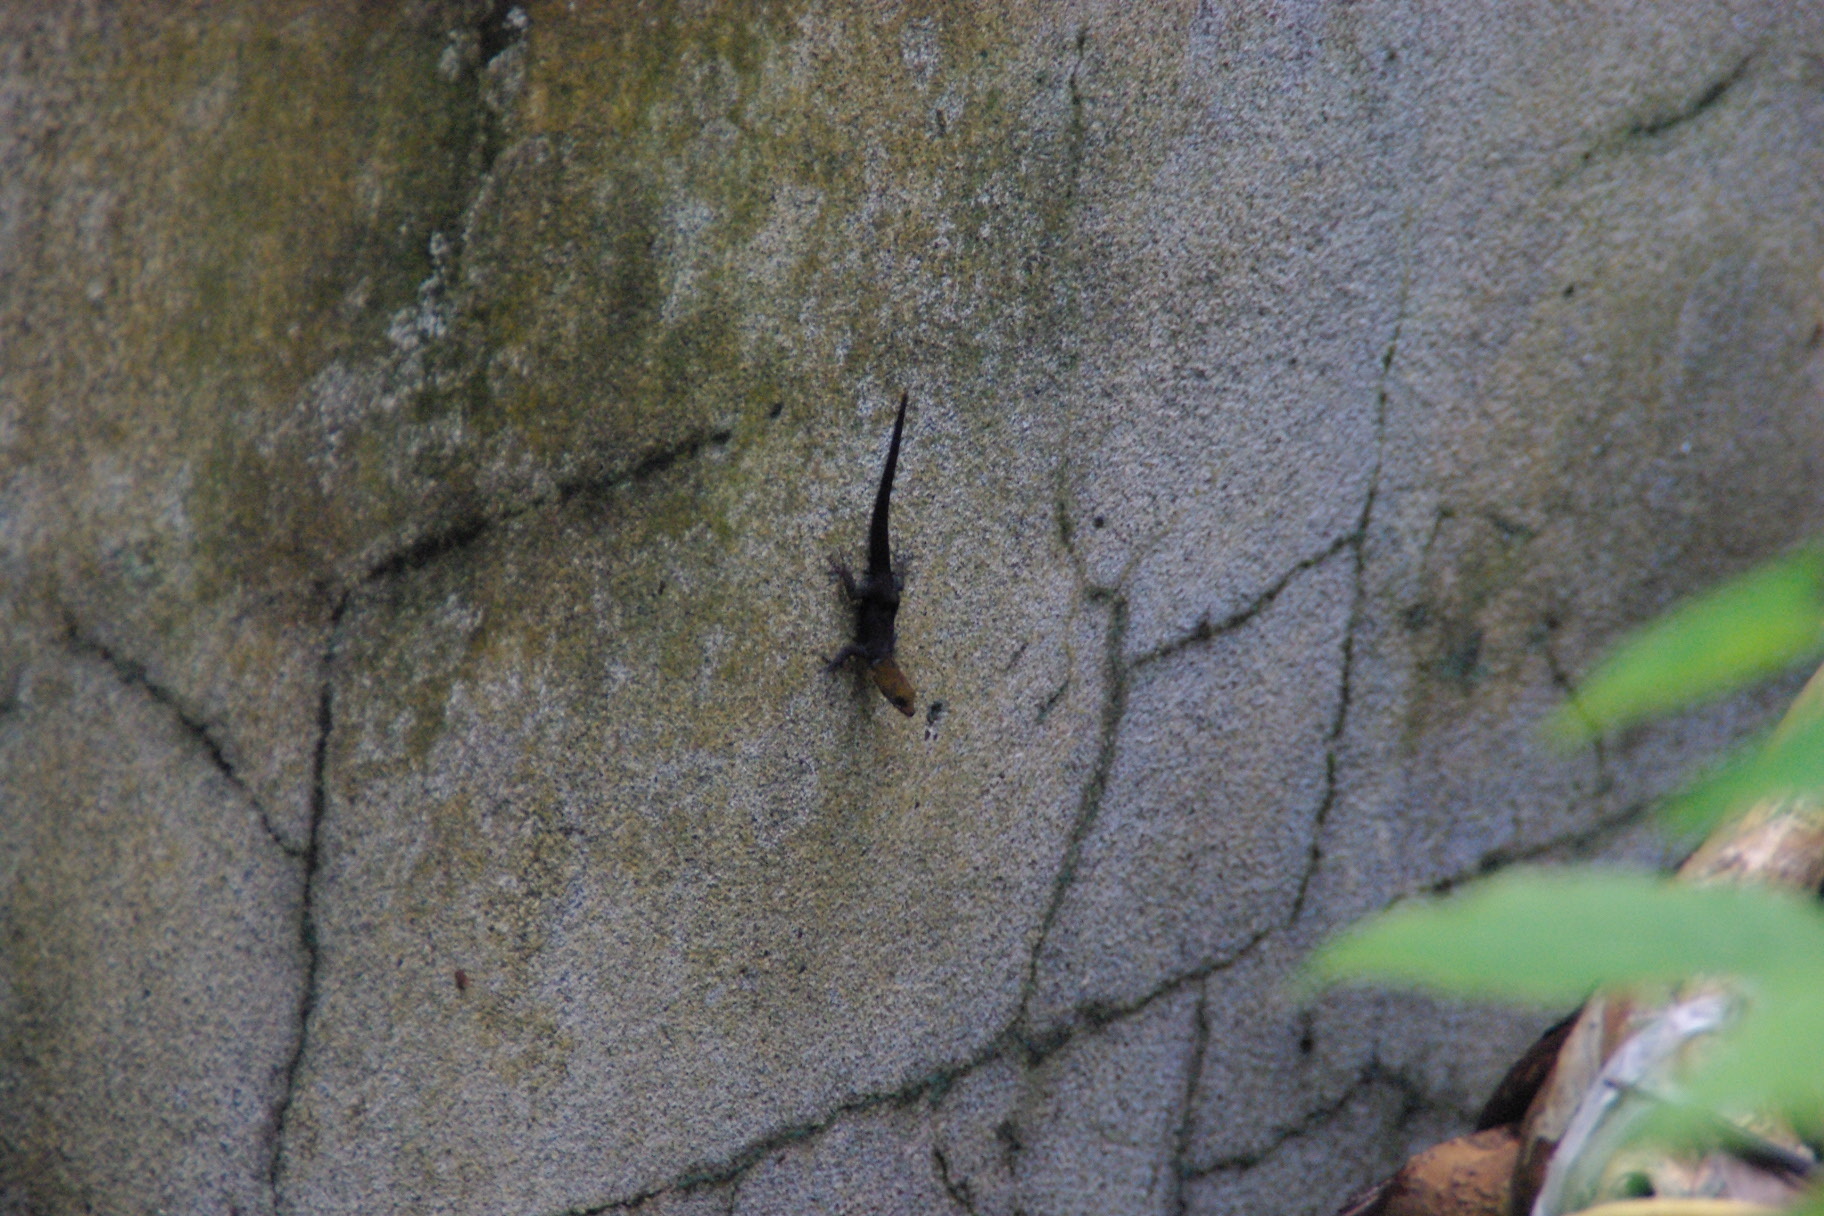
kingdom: Animalia
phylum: Chordata
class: Squamata
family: Sphaerodactylidae
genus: Gonatodes
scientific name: Gonatodes albogularis
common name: Yellow-headed gecko
